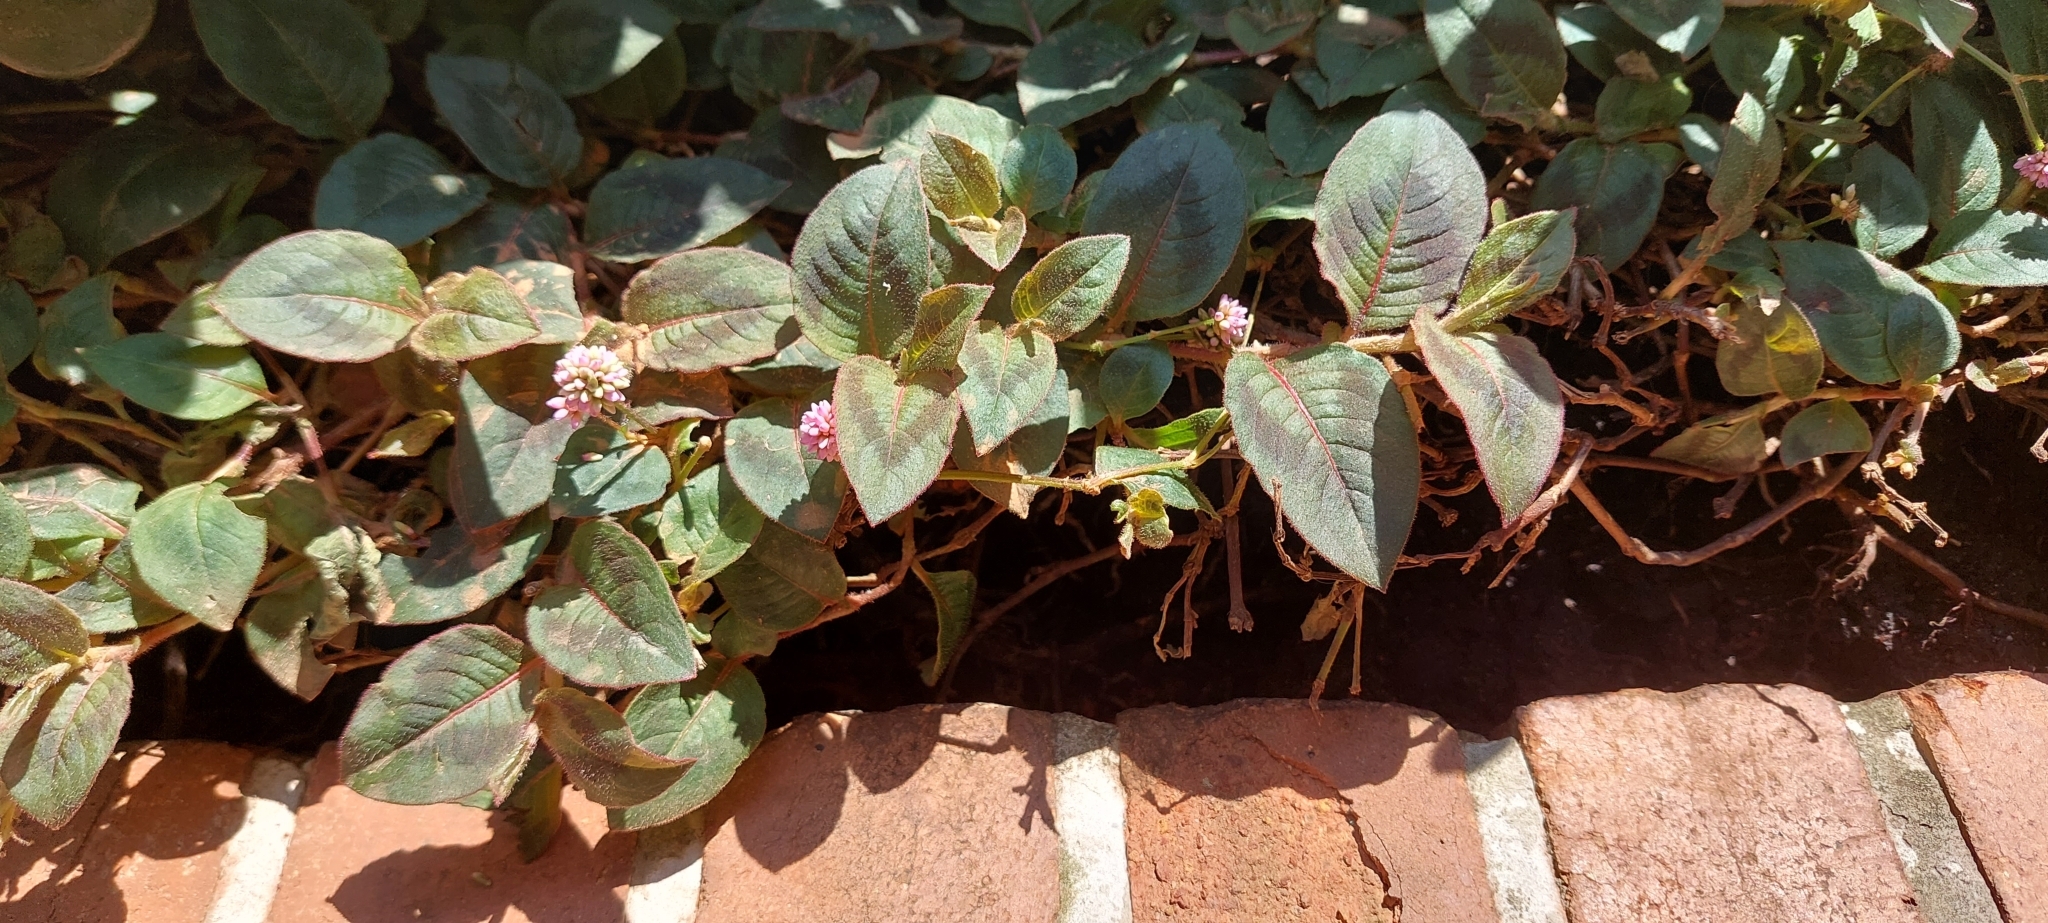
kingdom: Plantae
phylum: Tracheophyta
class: Magnoliopsida
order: Caryophyllales
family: Polygonaceae
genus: Persicaria
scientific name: Persicaria capitata
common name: Pinkhead smartweed
